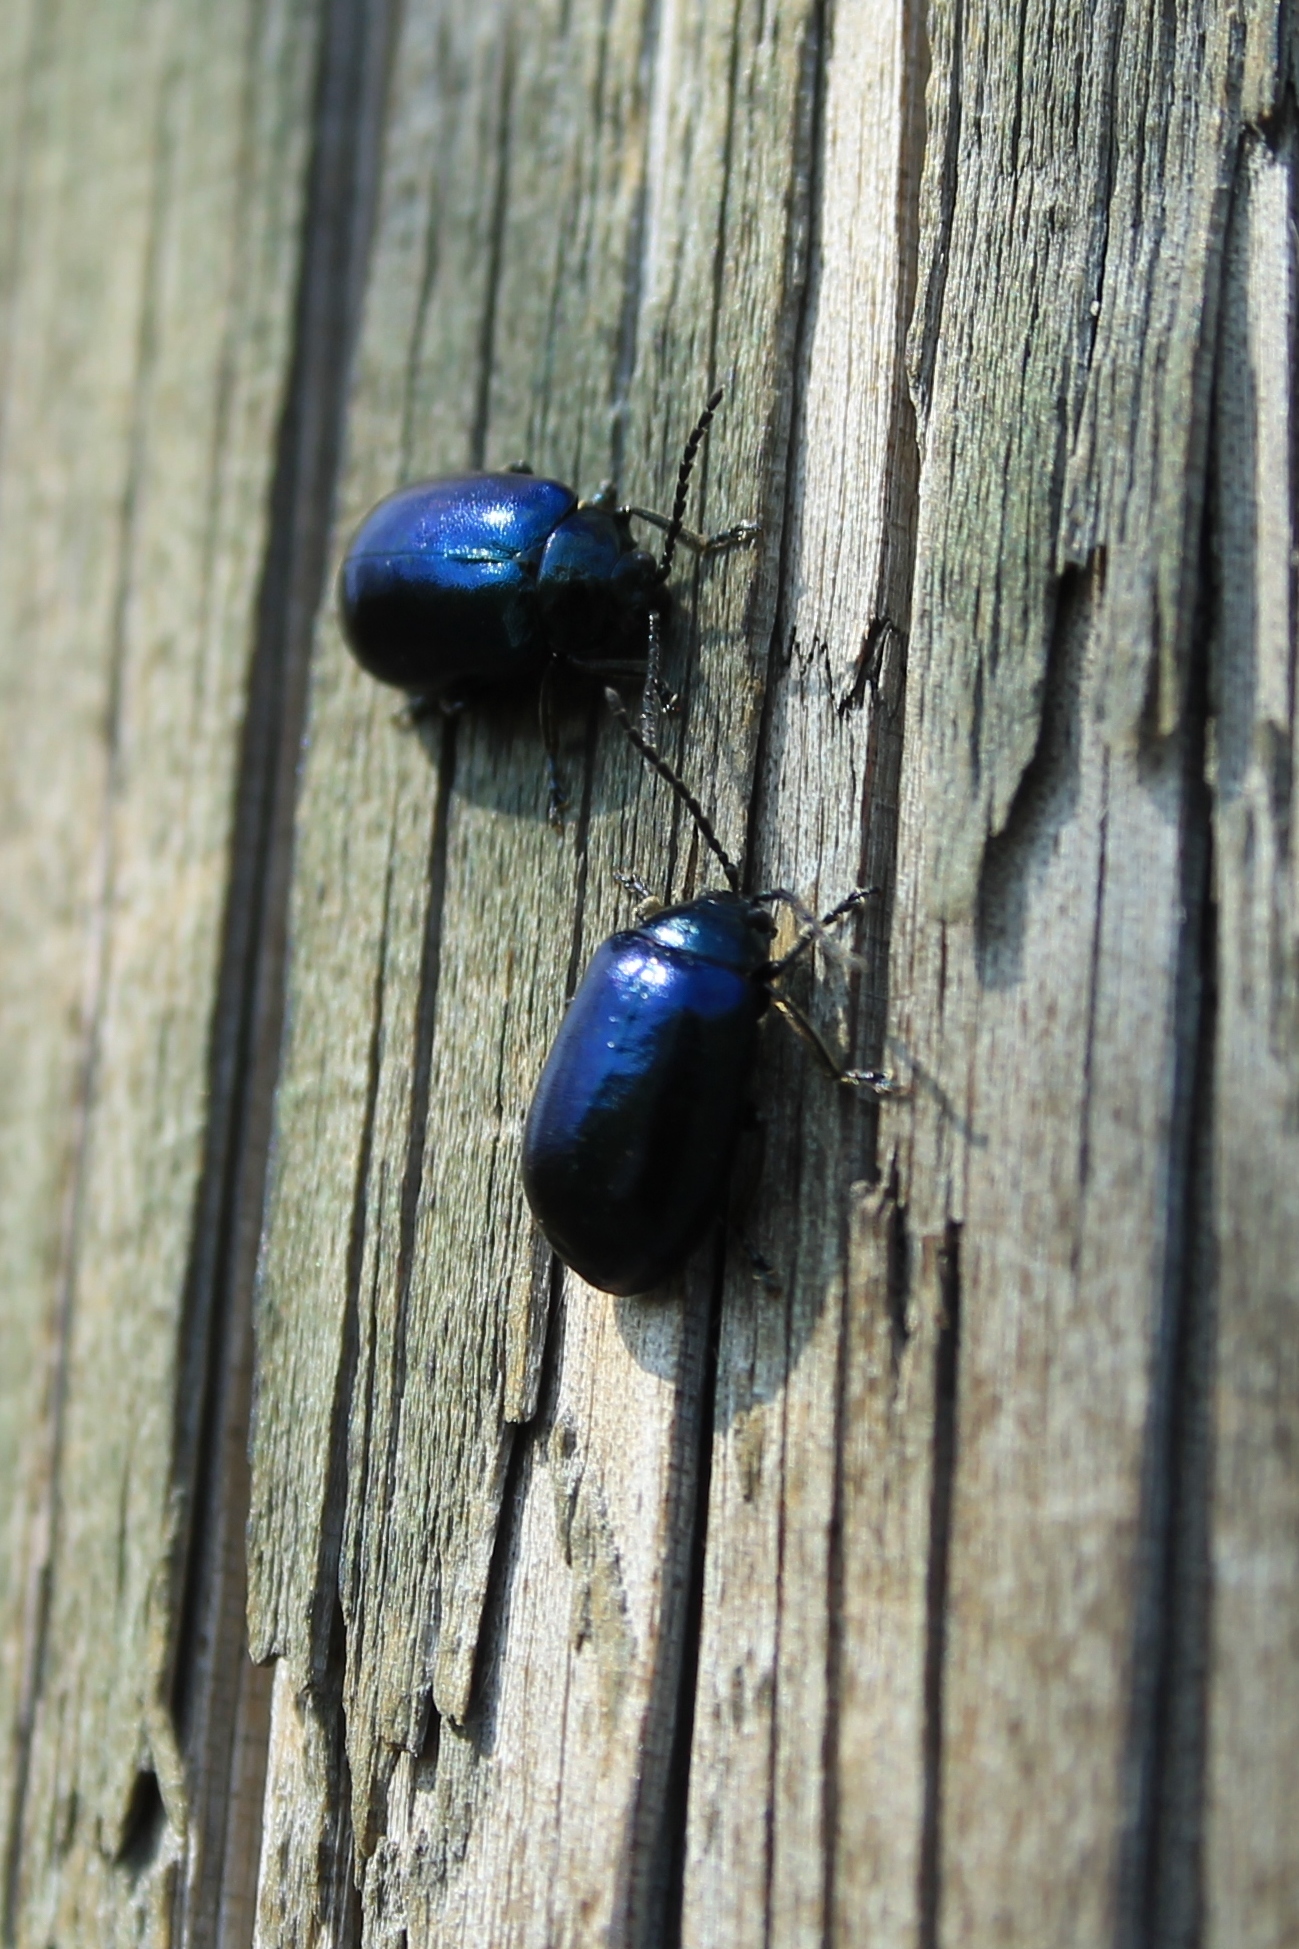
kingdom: Animalia
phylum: Arthropoda
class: Insecta
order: Coleoptera
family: Chrysomelidae
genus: Agelastica
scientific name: Agelastica alni
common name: Alder leaf beetle
